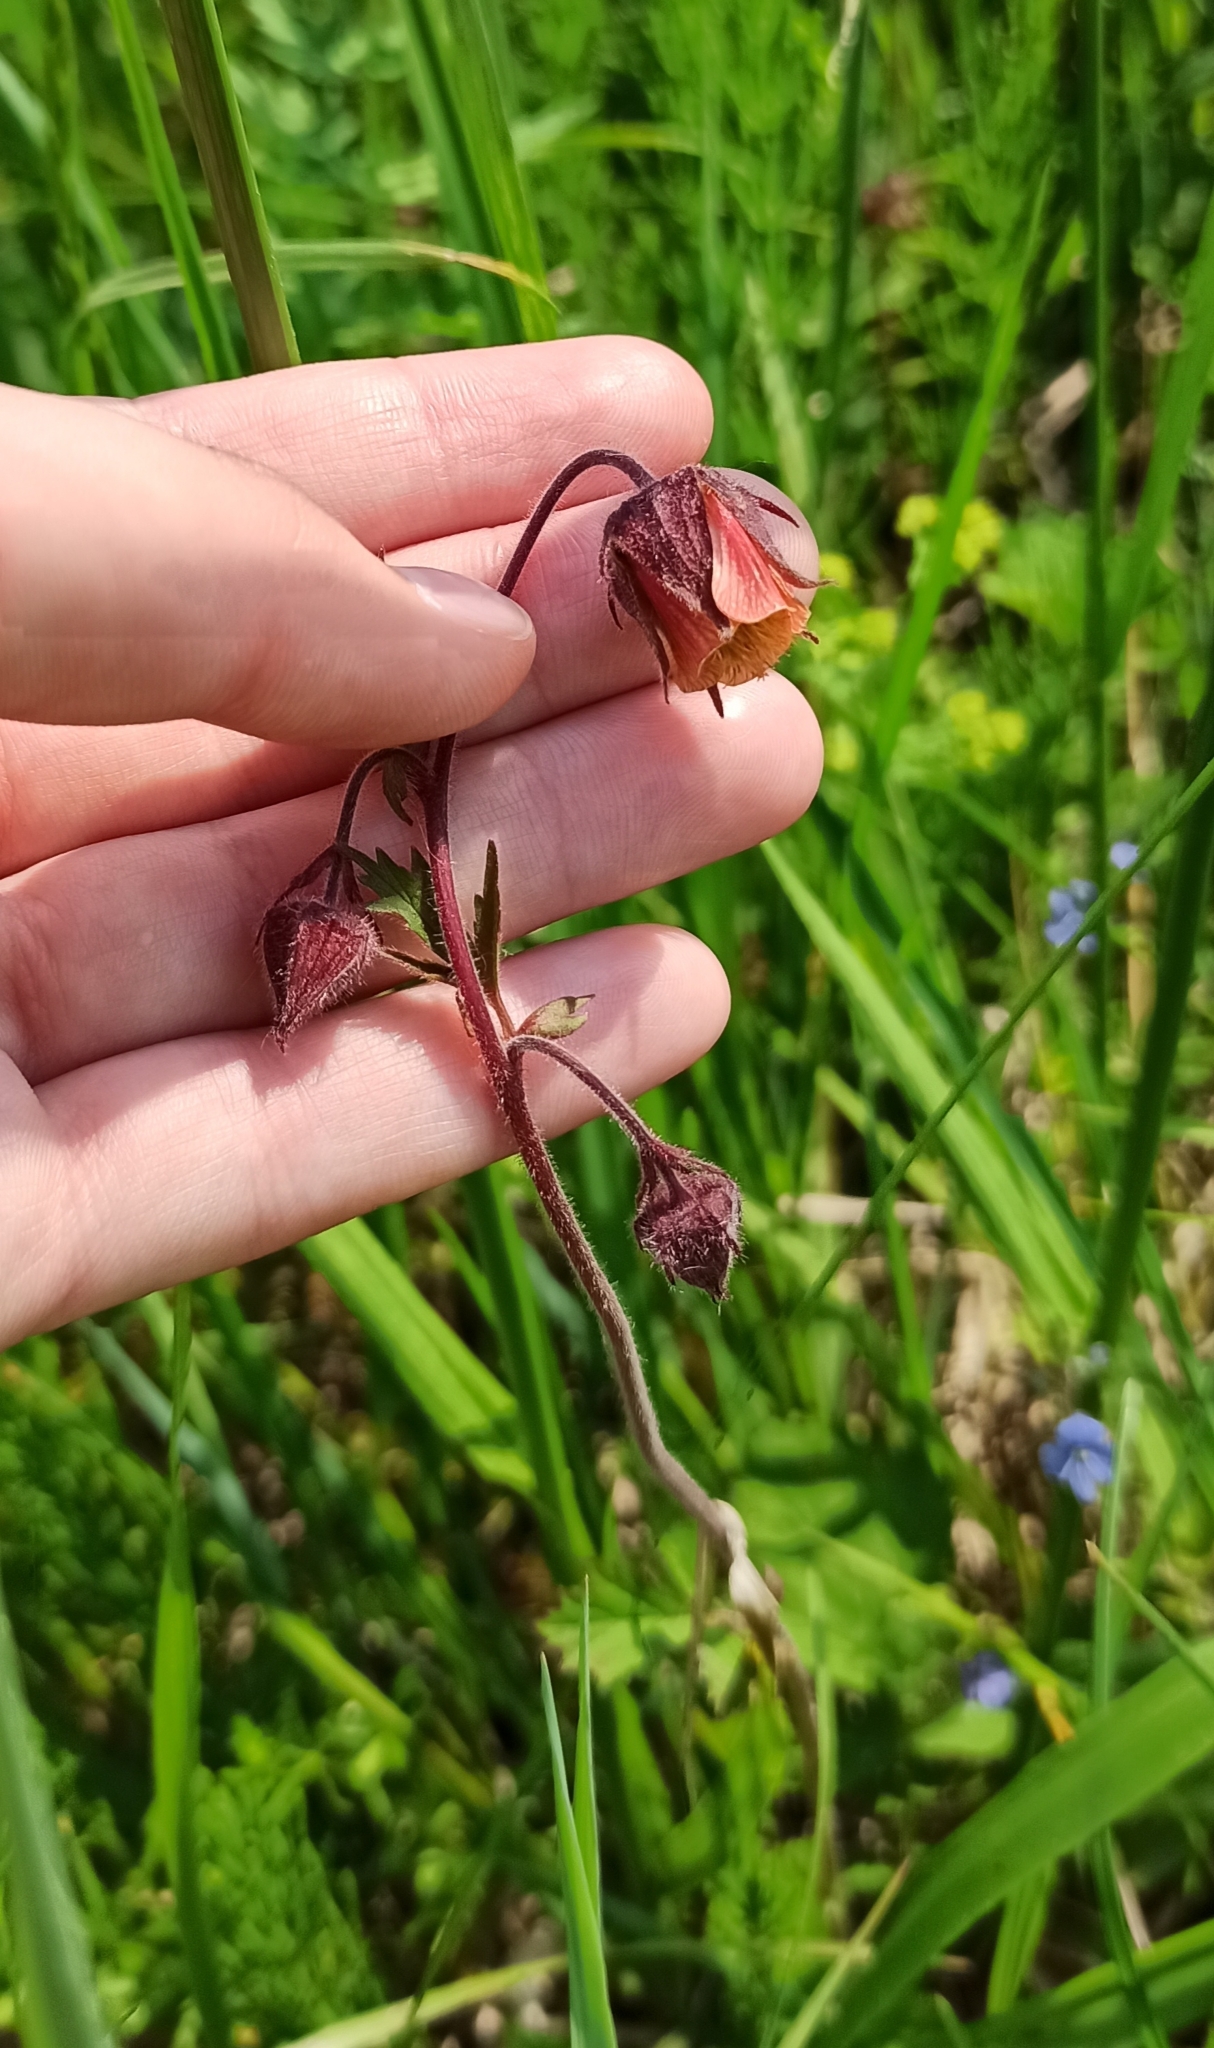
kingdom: Plantae
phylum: Tracheophyta
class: Magnoliopsida
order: Rosales
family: Rosaceae
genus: Geum
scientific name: Geum rivale
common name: Water avens
